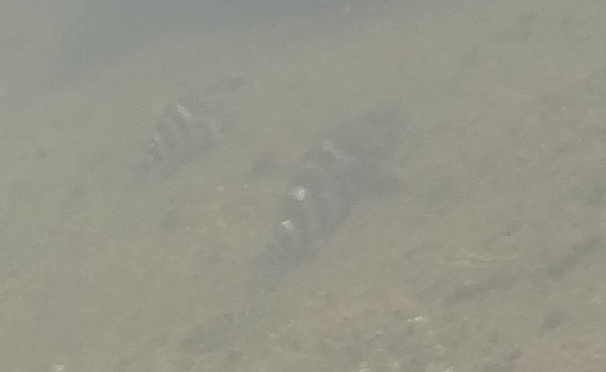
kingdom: Animalia
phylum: Chordata
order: Perciformes
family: Cirrhitidae
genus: Cirrhitus
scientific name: Cirrhitus rivulatus
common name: Giant hawkfish
